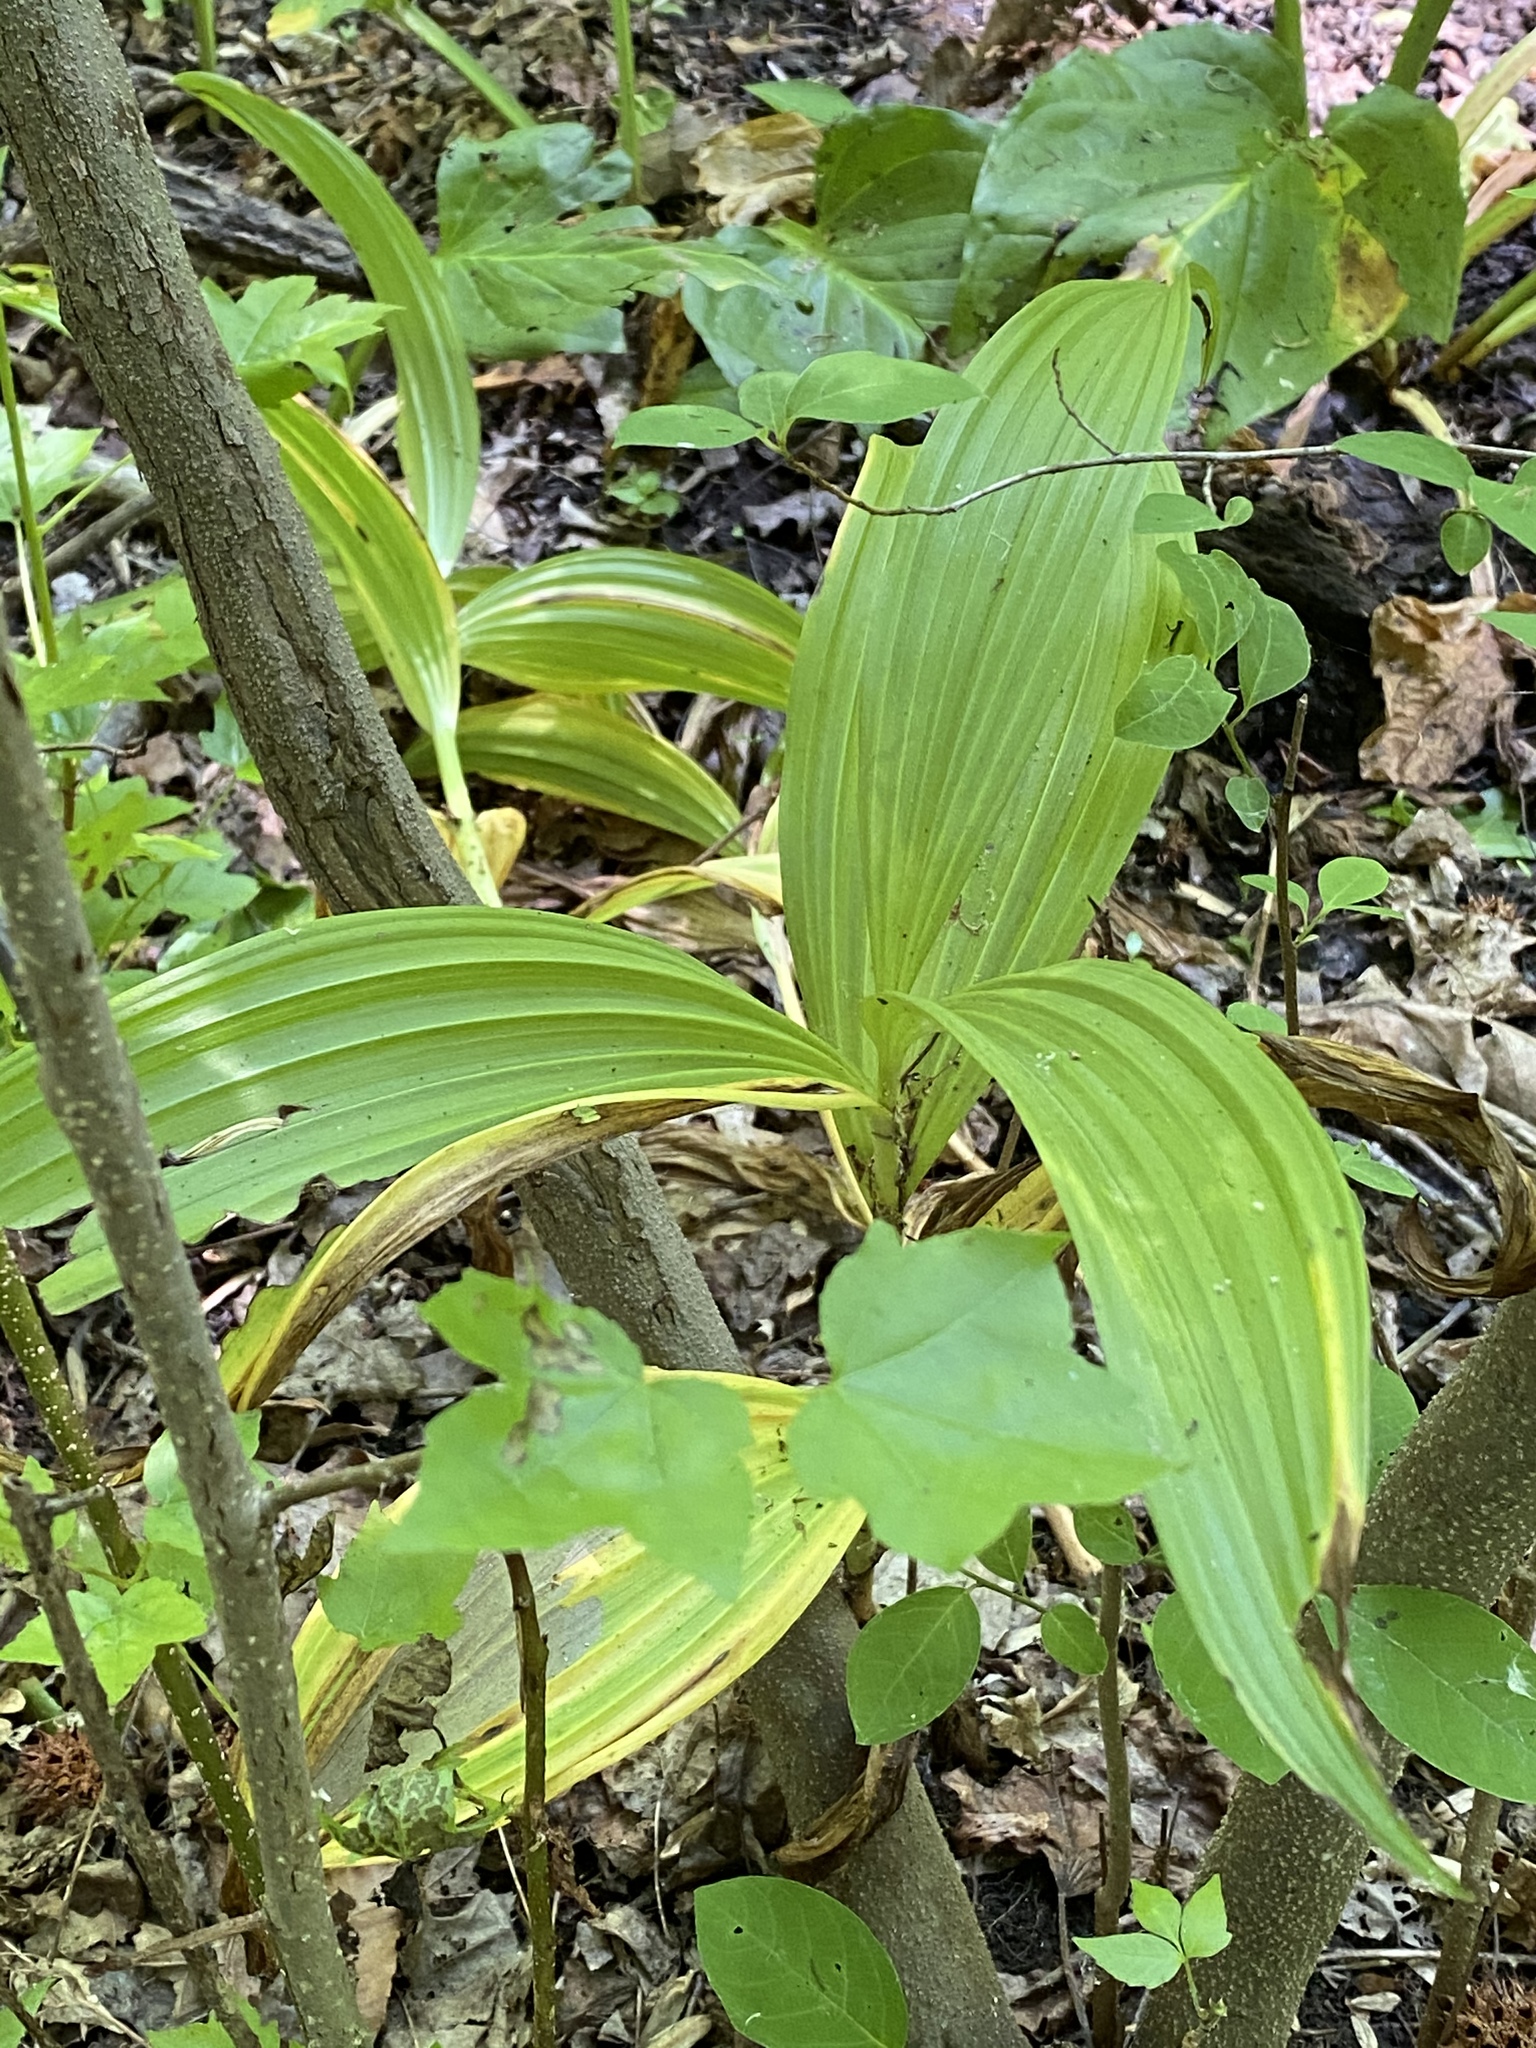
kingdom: Plantae
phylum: Tracheophyta
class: Liliopsida
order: Liliales
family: Melanthiaceae
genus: Veratrum
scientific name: Veratrum viride
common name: American false hellebore
